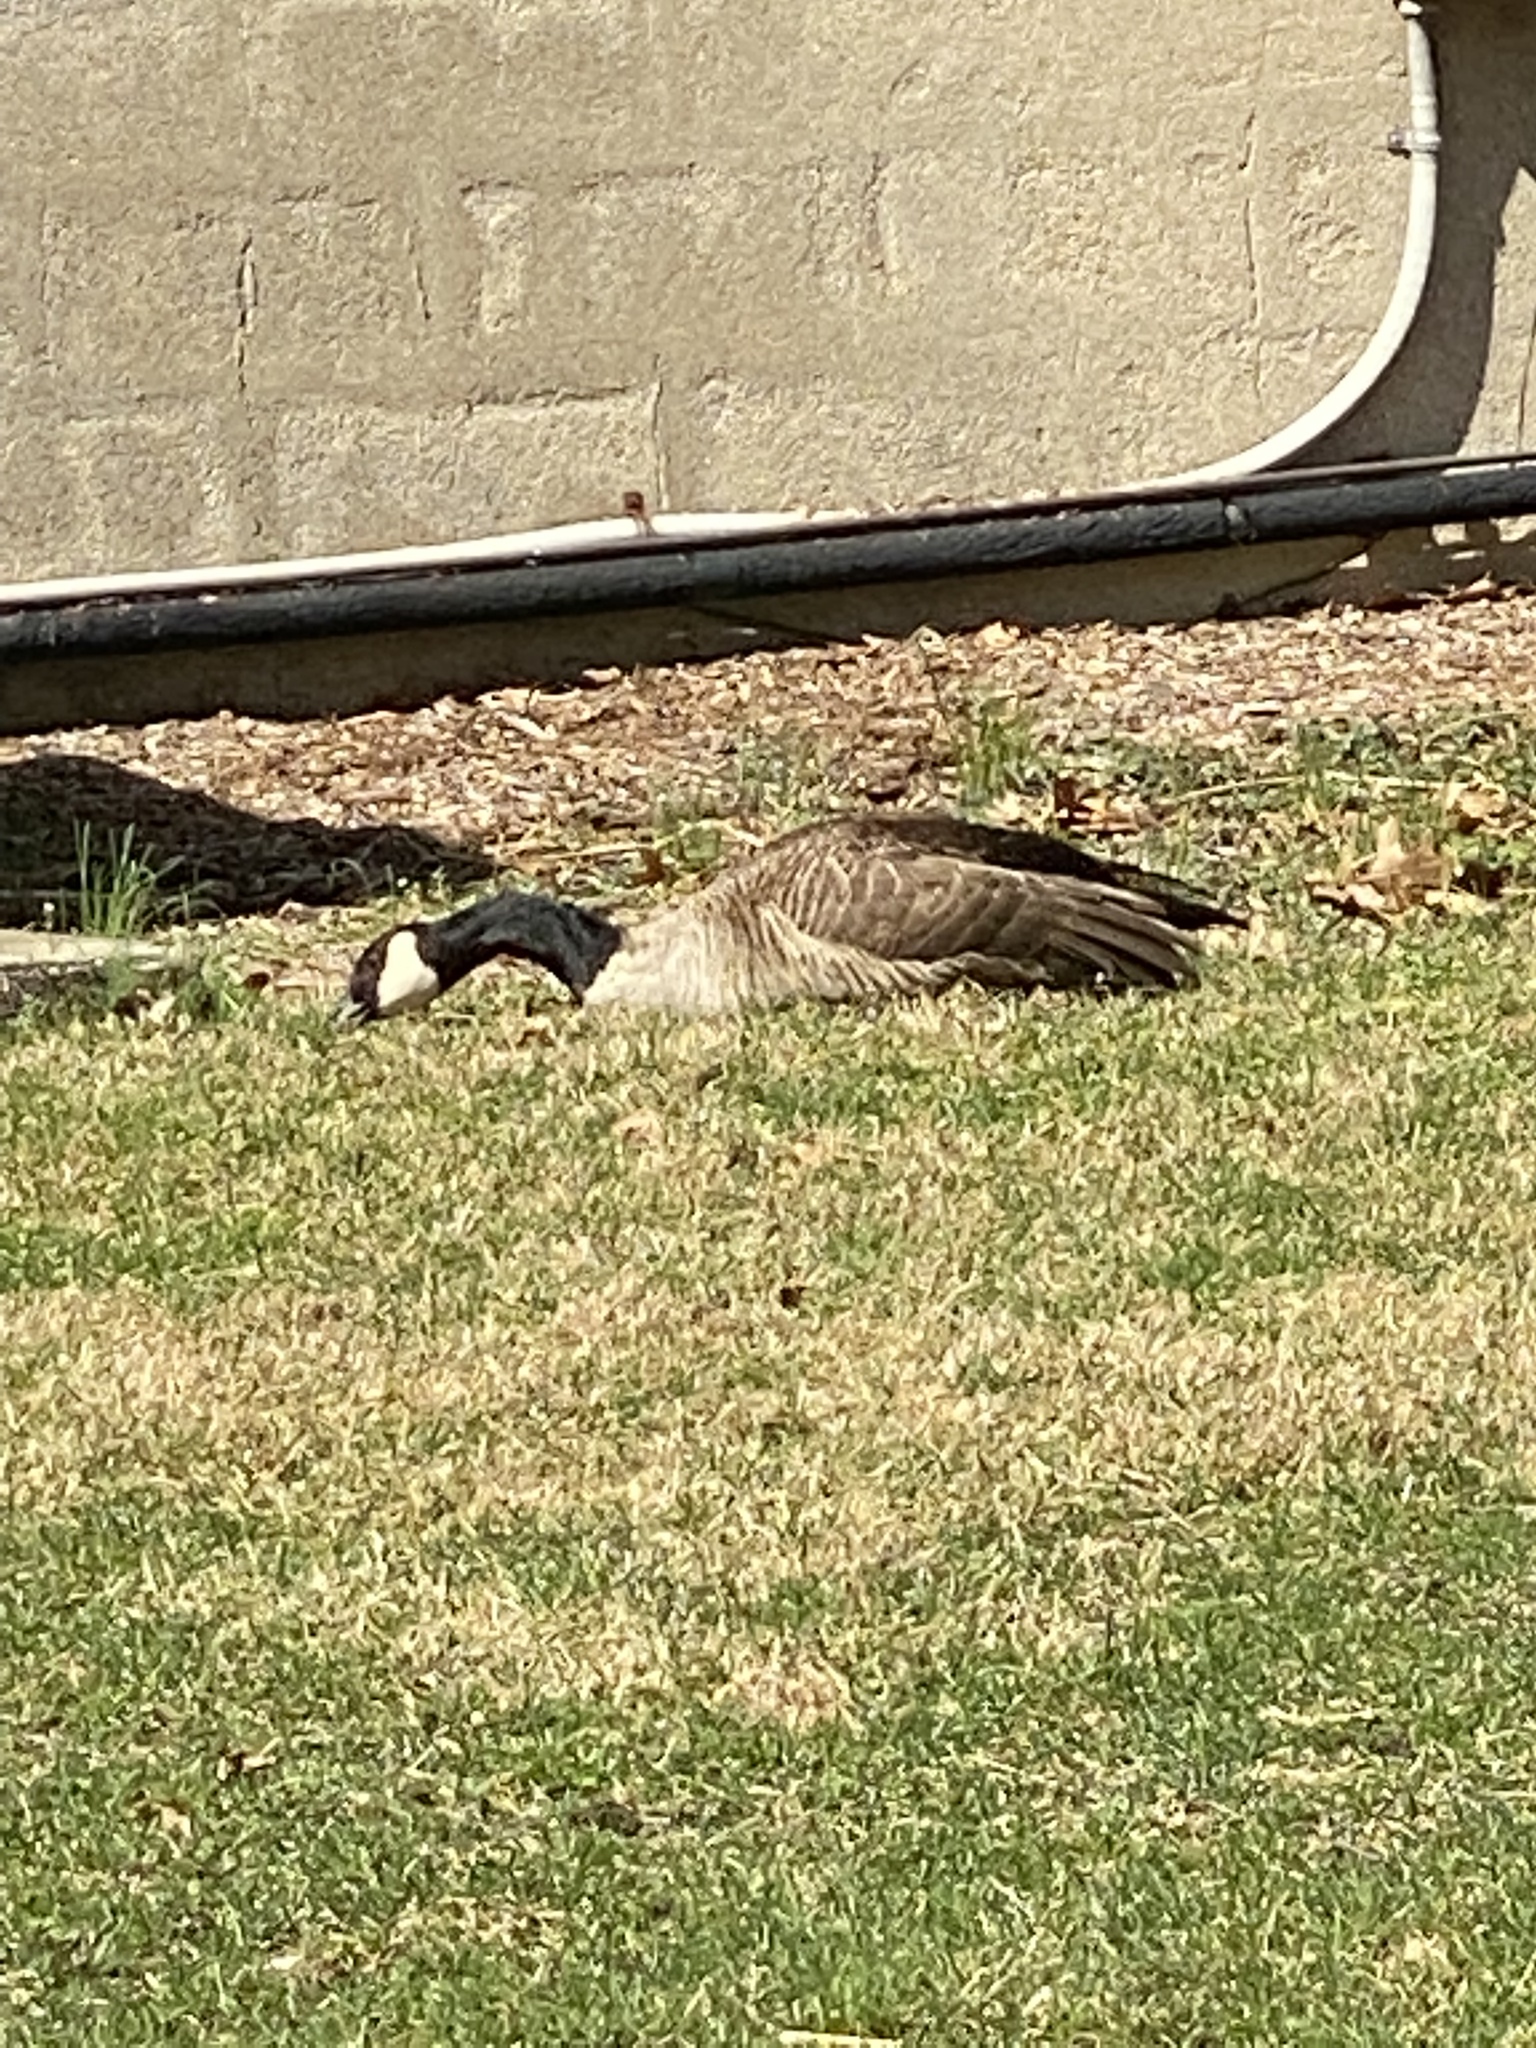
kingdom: Animalia
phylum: Chordata
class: Aves
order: Anseriformes
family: Anatidae
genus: Branta
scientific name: Branta canadensis
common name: Canada goose
